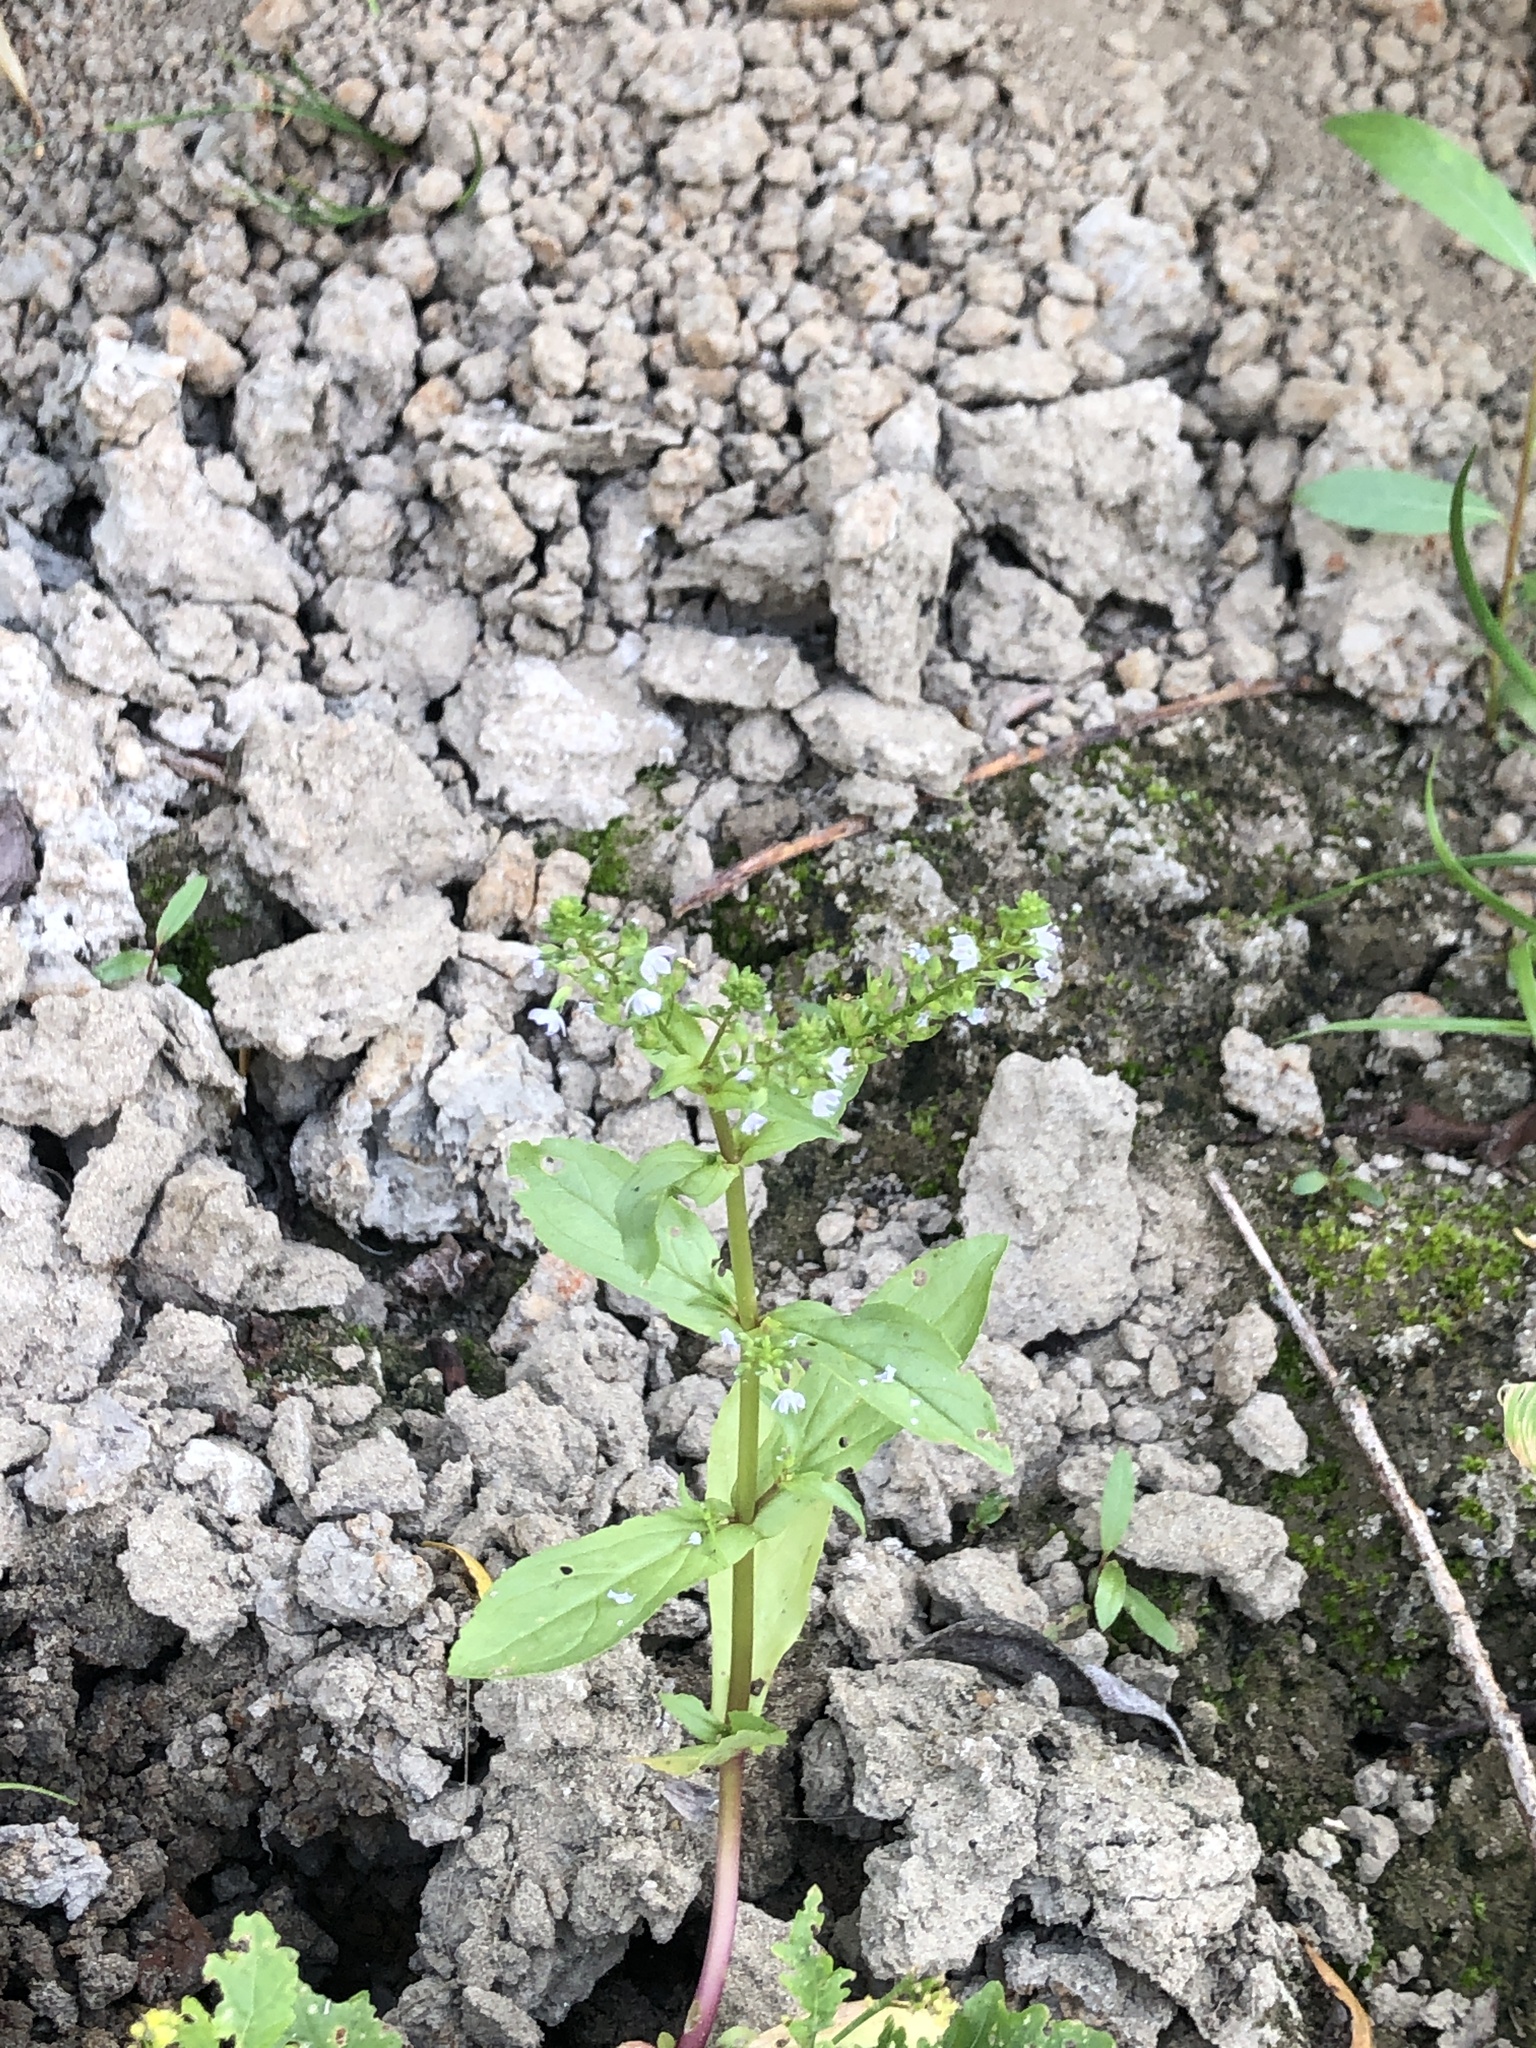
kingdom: Plantae
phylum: Tracheophyta
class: Magnoliopsida
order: Lamiales
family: Plantaginaceae
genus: Veronica
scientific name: Veronica anagallis-aquatica
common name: Water speedwell
